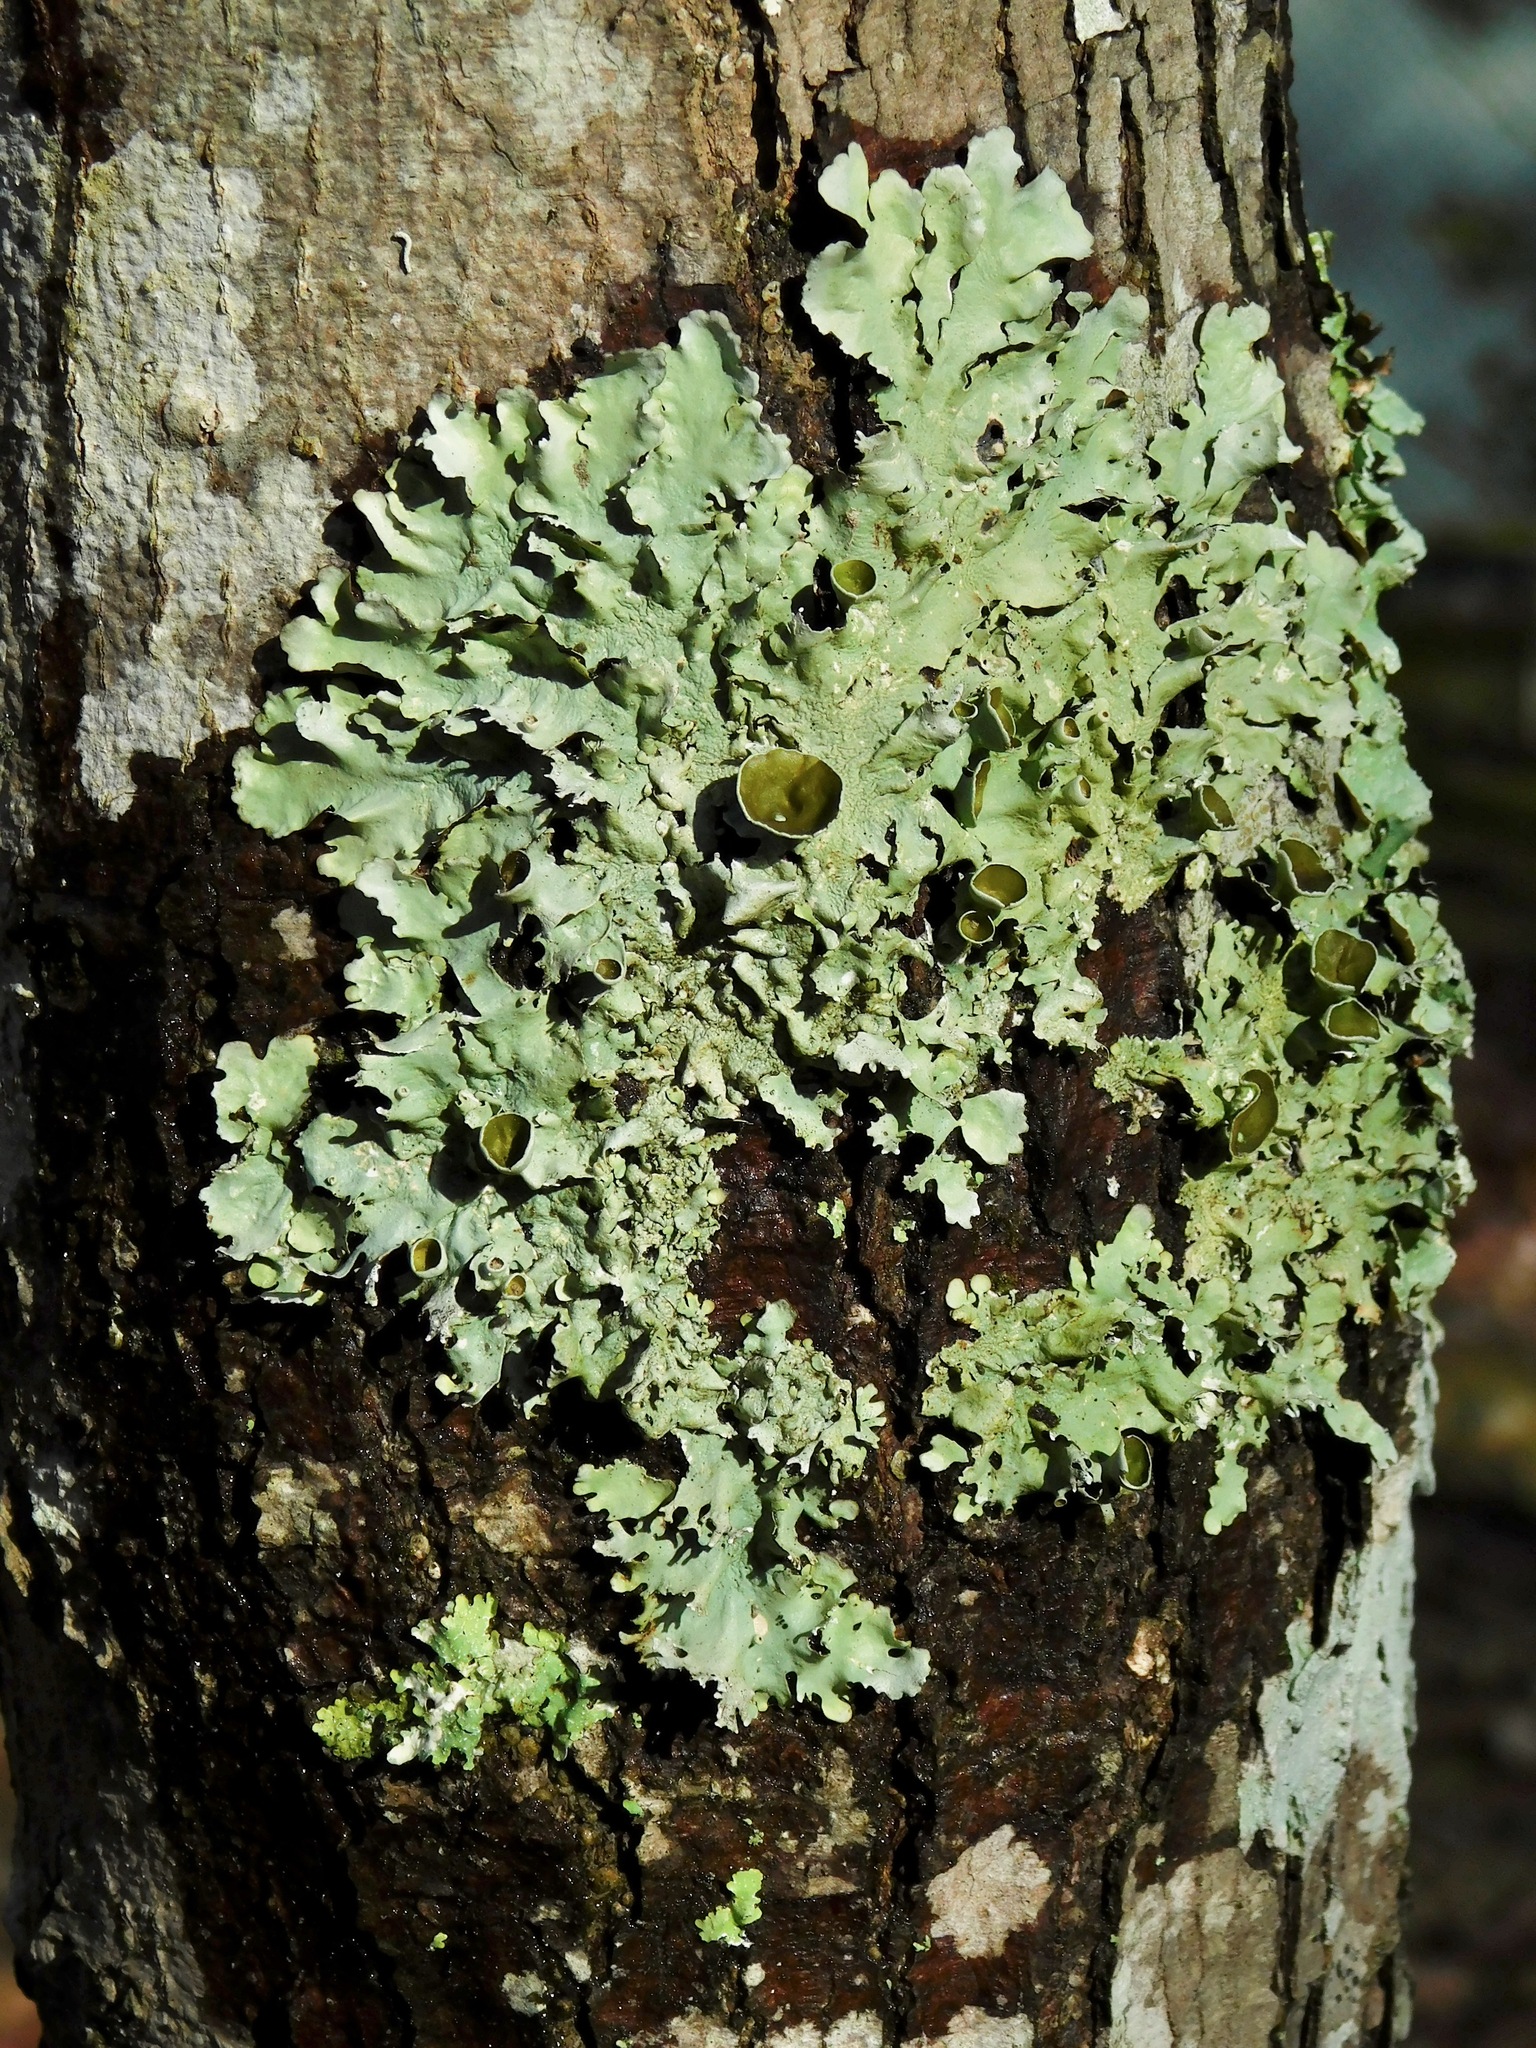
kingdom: Fungi
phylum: Ascomycota
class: Lecanoromycetes
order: Lecanorales
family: Parmeliaceae
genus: Parmotrema
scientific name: Parmotrema submarginale
